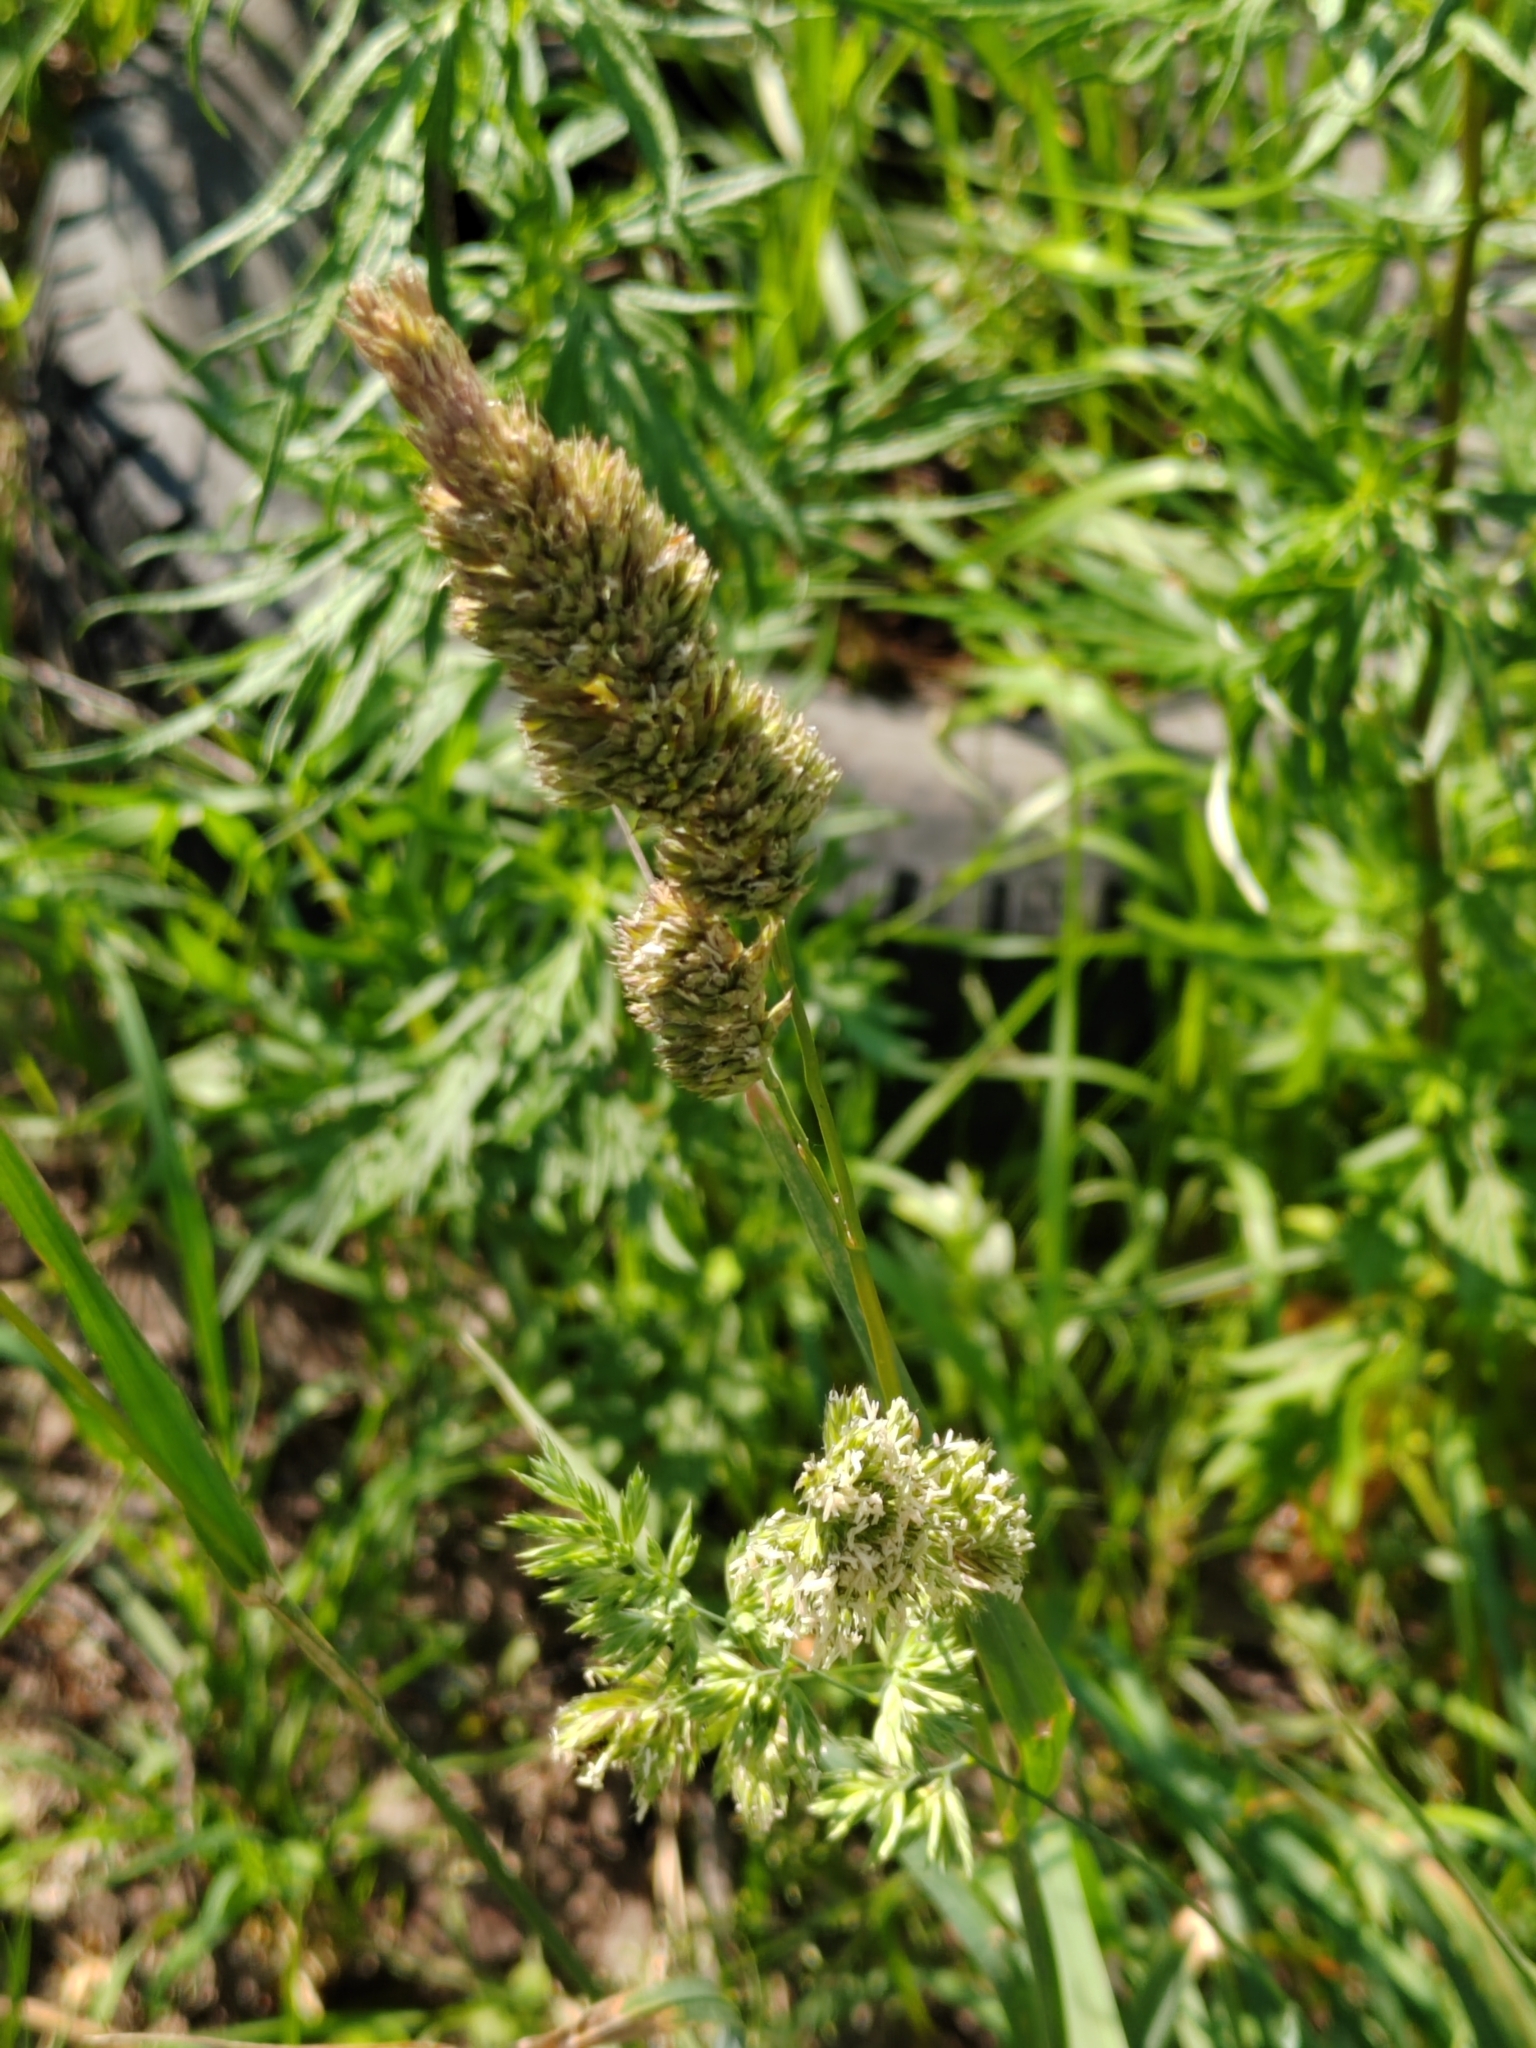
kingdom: Plantae
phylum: Tracheophyta
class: Liliopsida
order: Poales
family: Poaceae
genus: Dactylis
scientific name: Dactylis glomerata
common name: Orchardgrass
